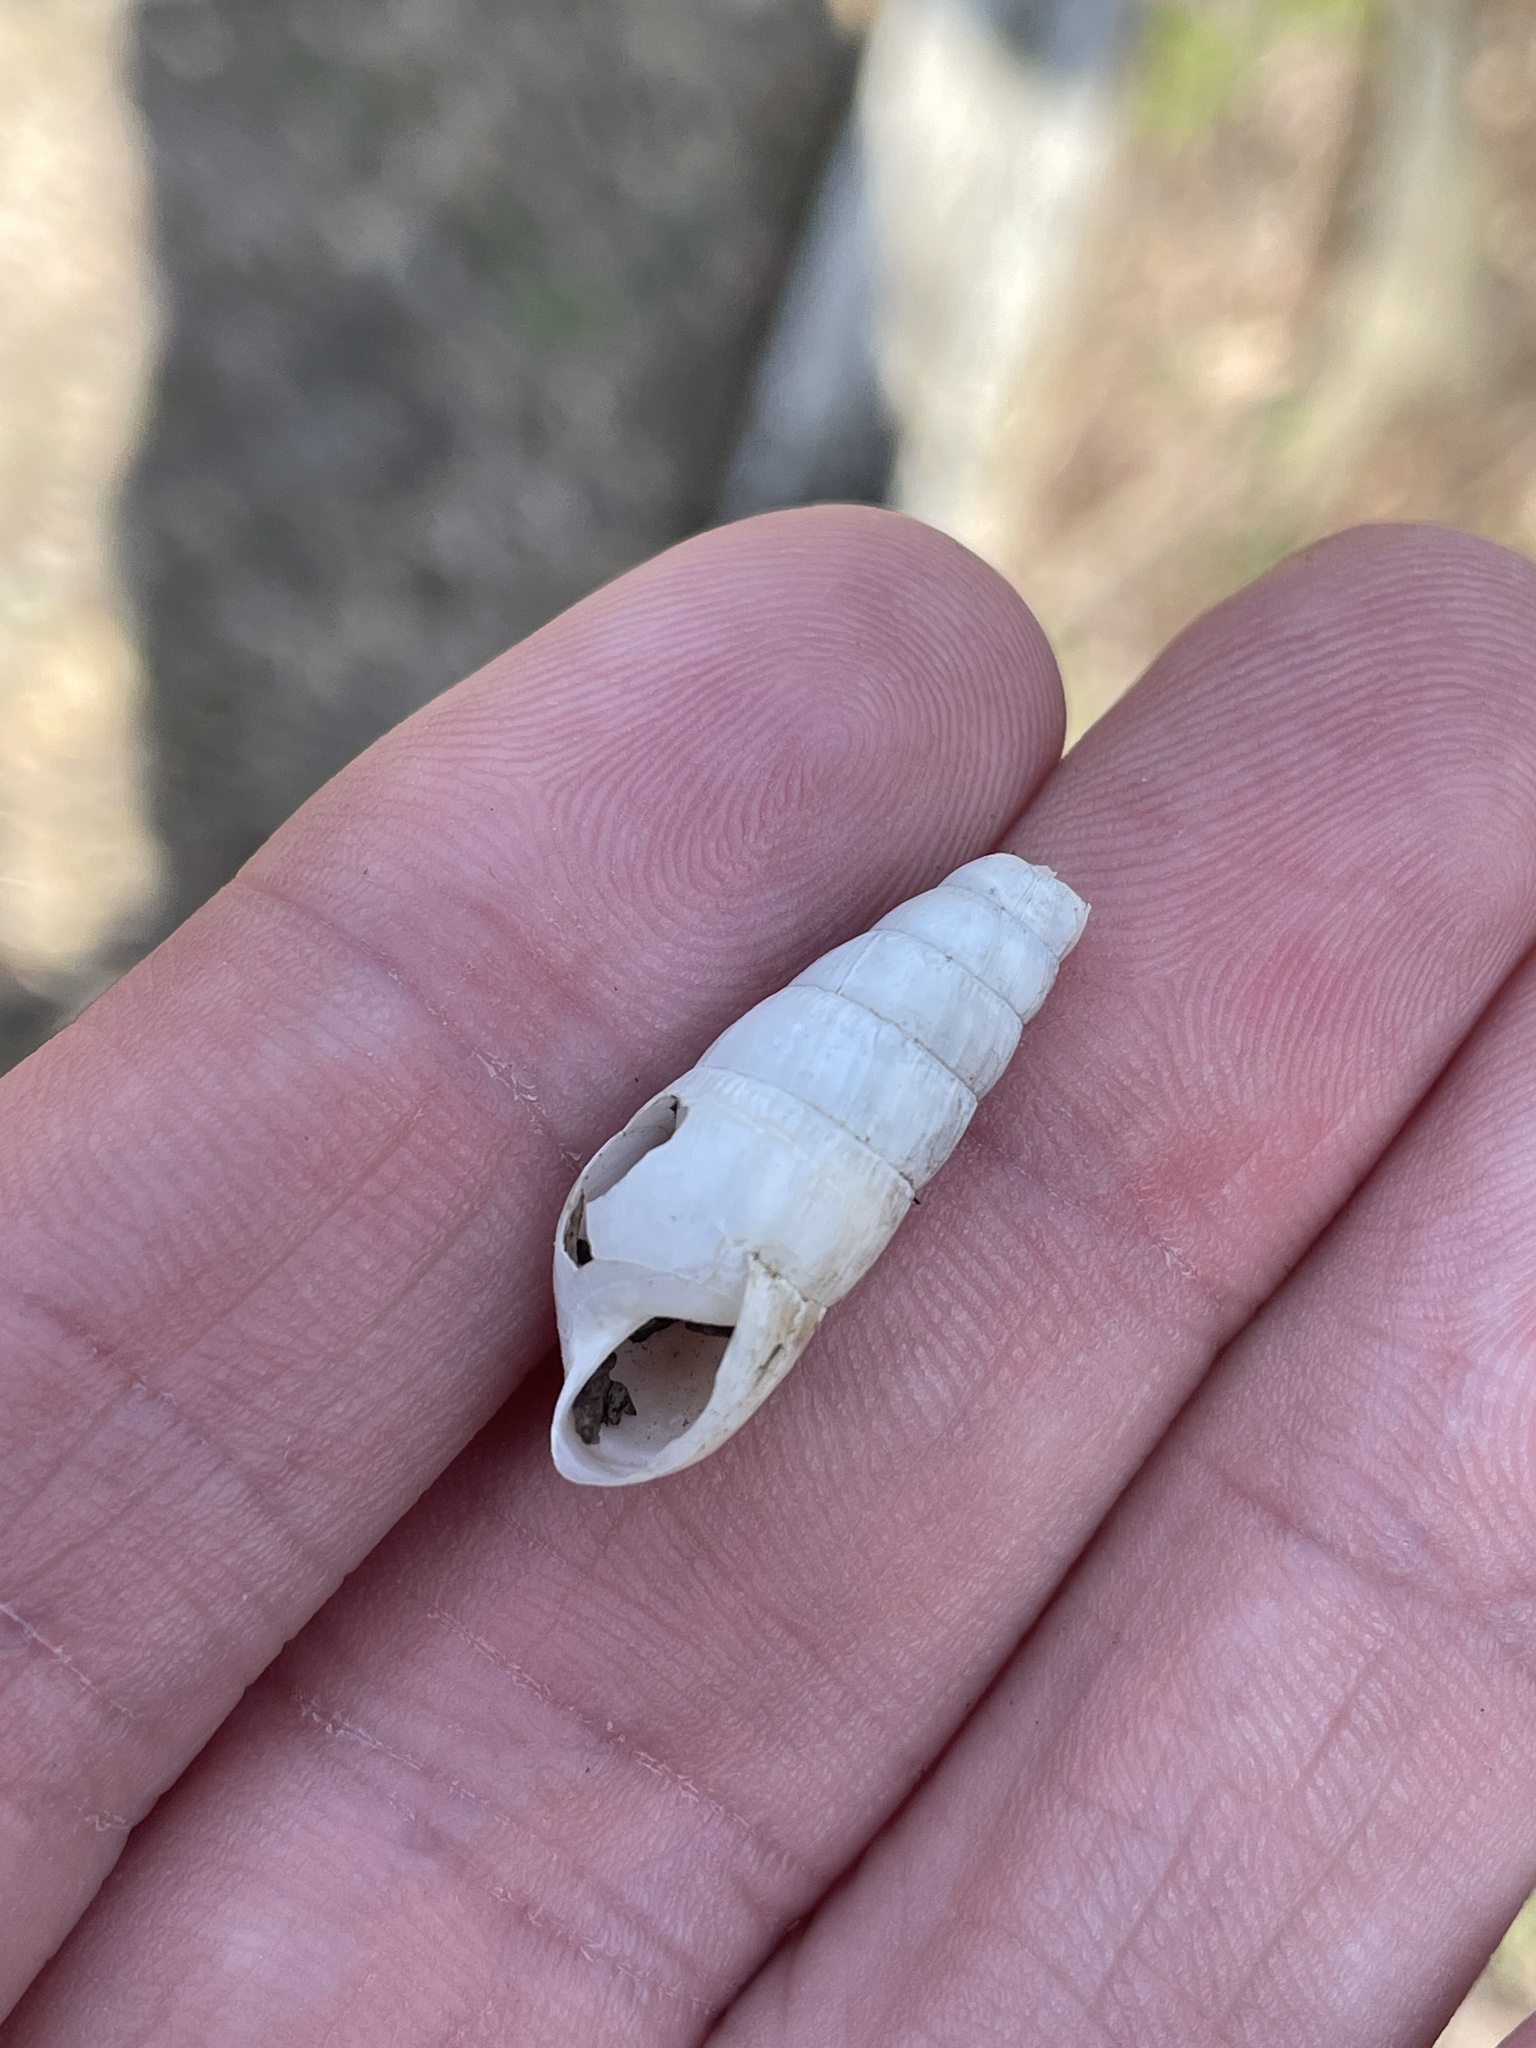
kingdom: Animalia
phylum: Mollusca
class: Gastropoda
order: Stylommatophora
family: Achatinidae
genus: Rumina
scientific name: Rumina decollata
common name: Decollate snail
